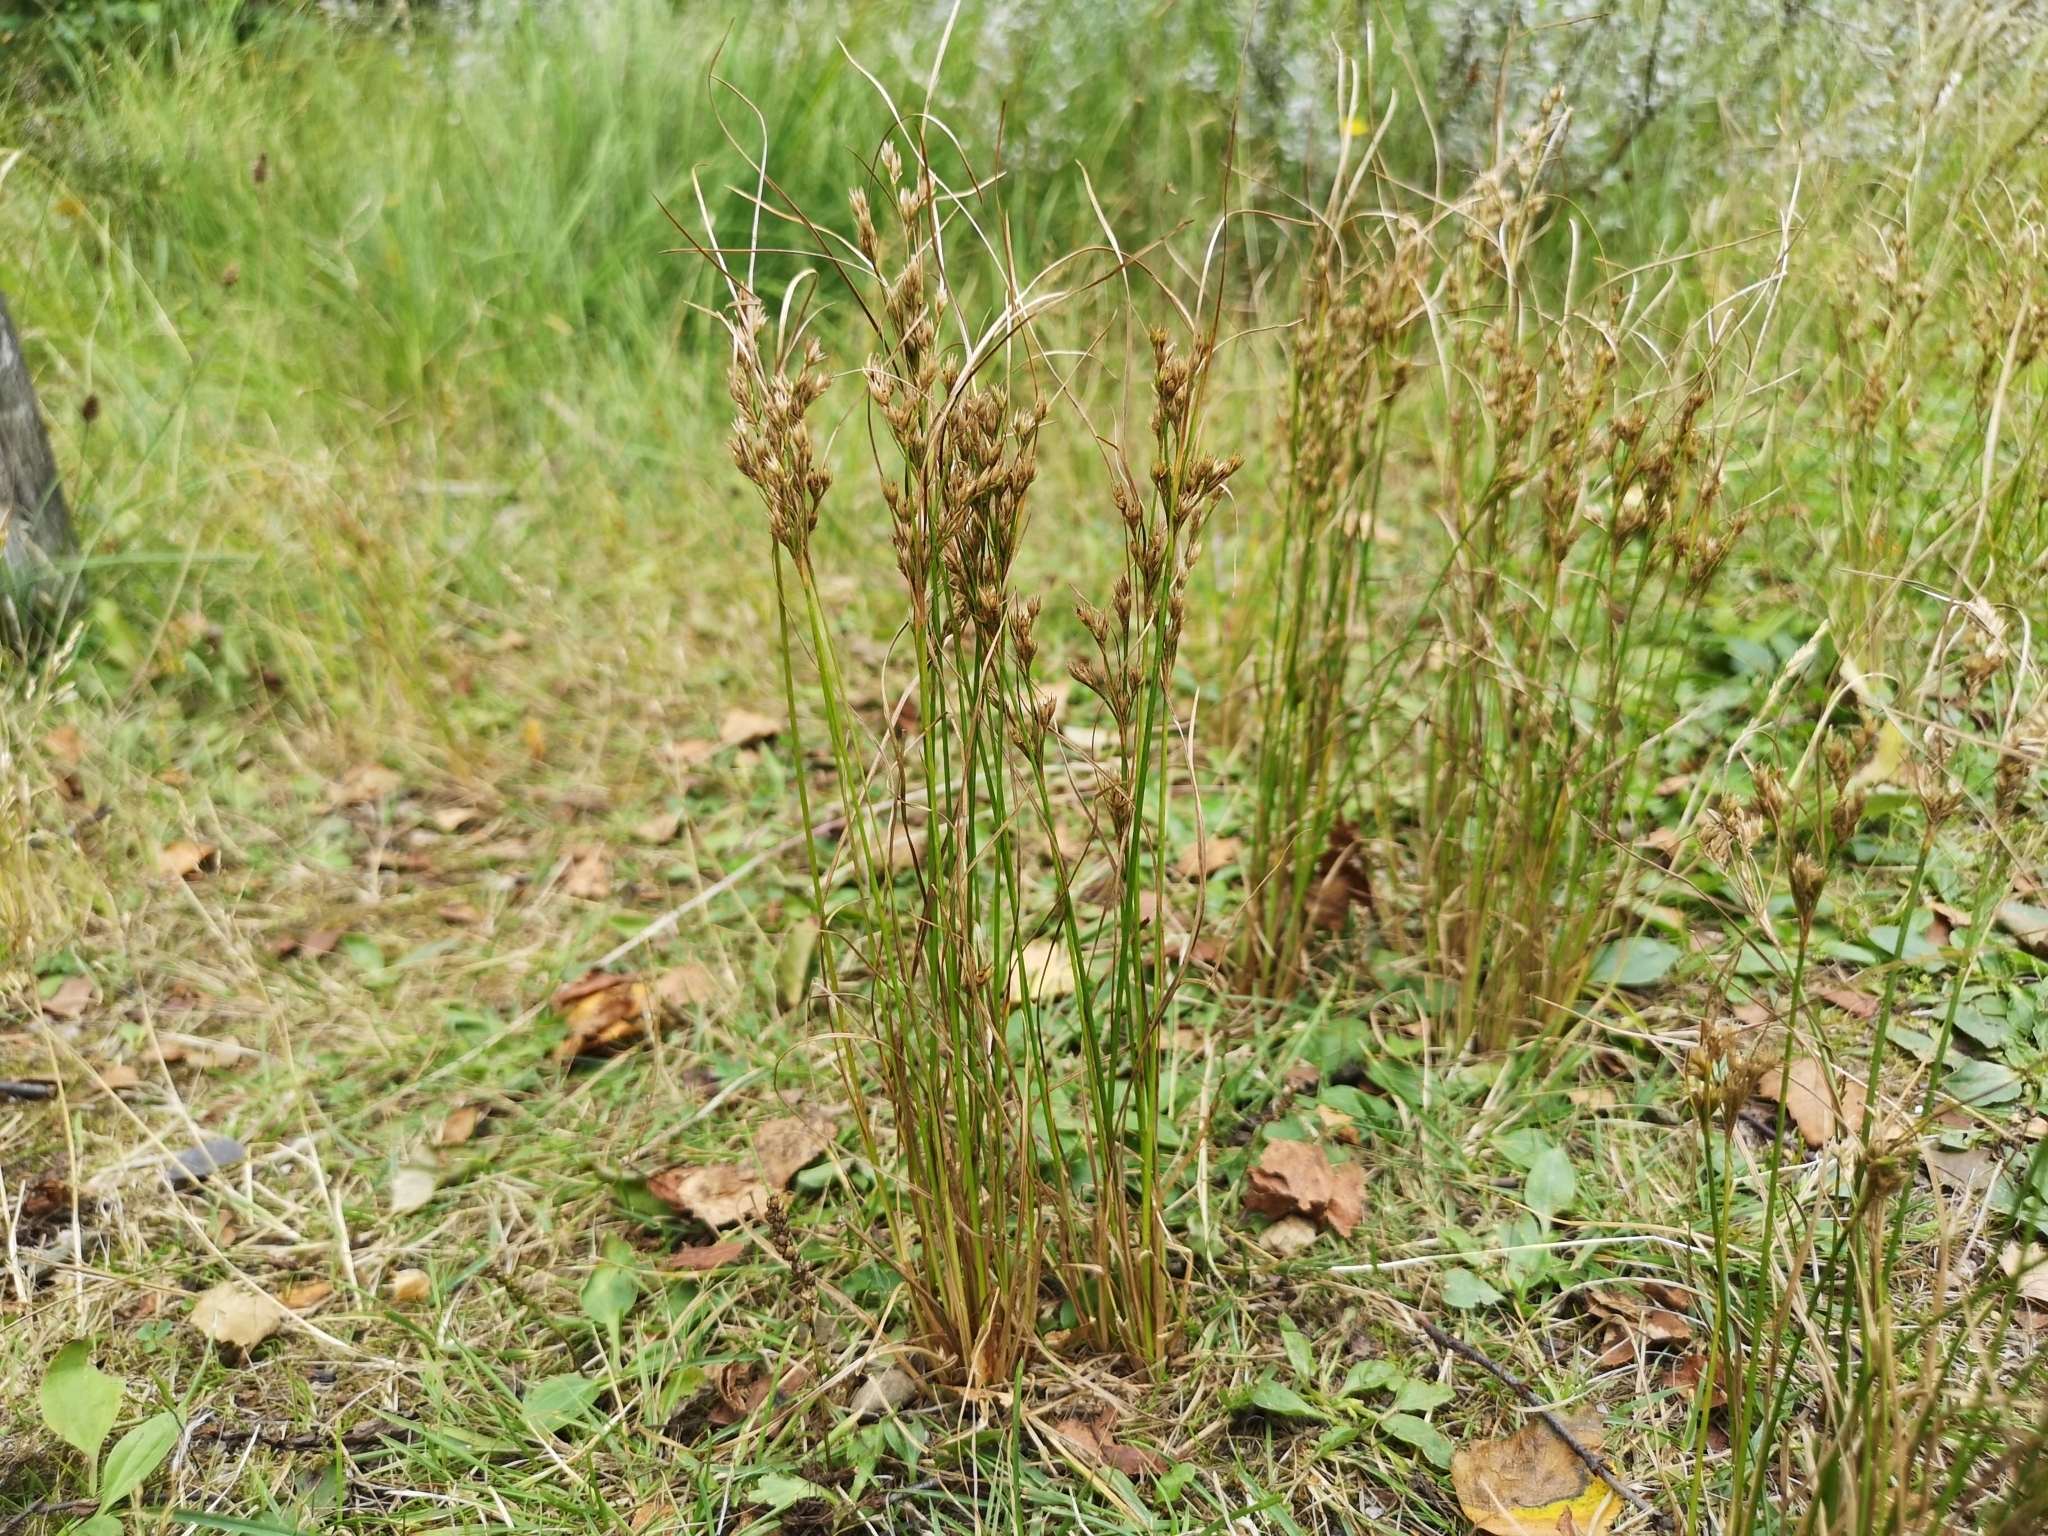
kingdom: Plantae
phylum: Tracheophyta
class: Liliopsida
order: Poales
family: Juncaceae
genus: Juncus
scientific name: Juncus tenuis
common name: Slender rush
